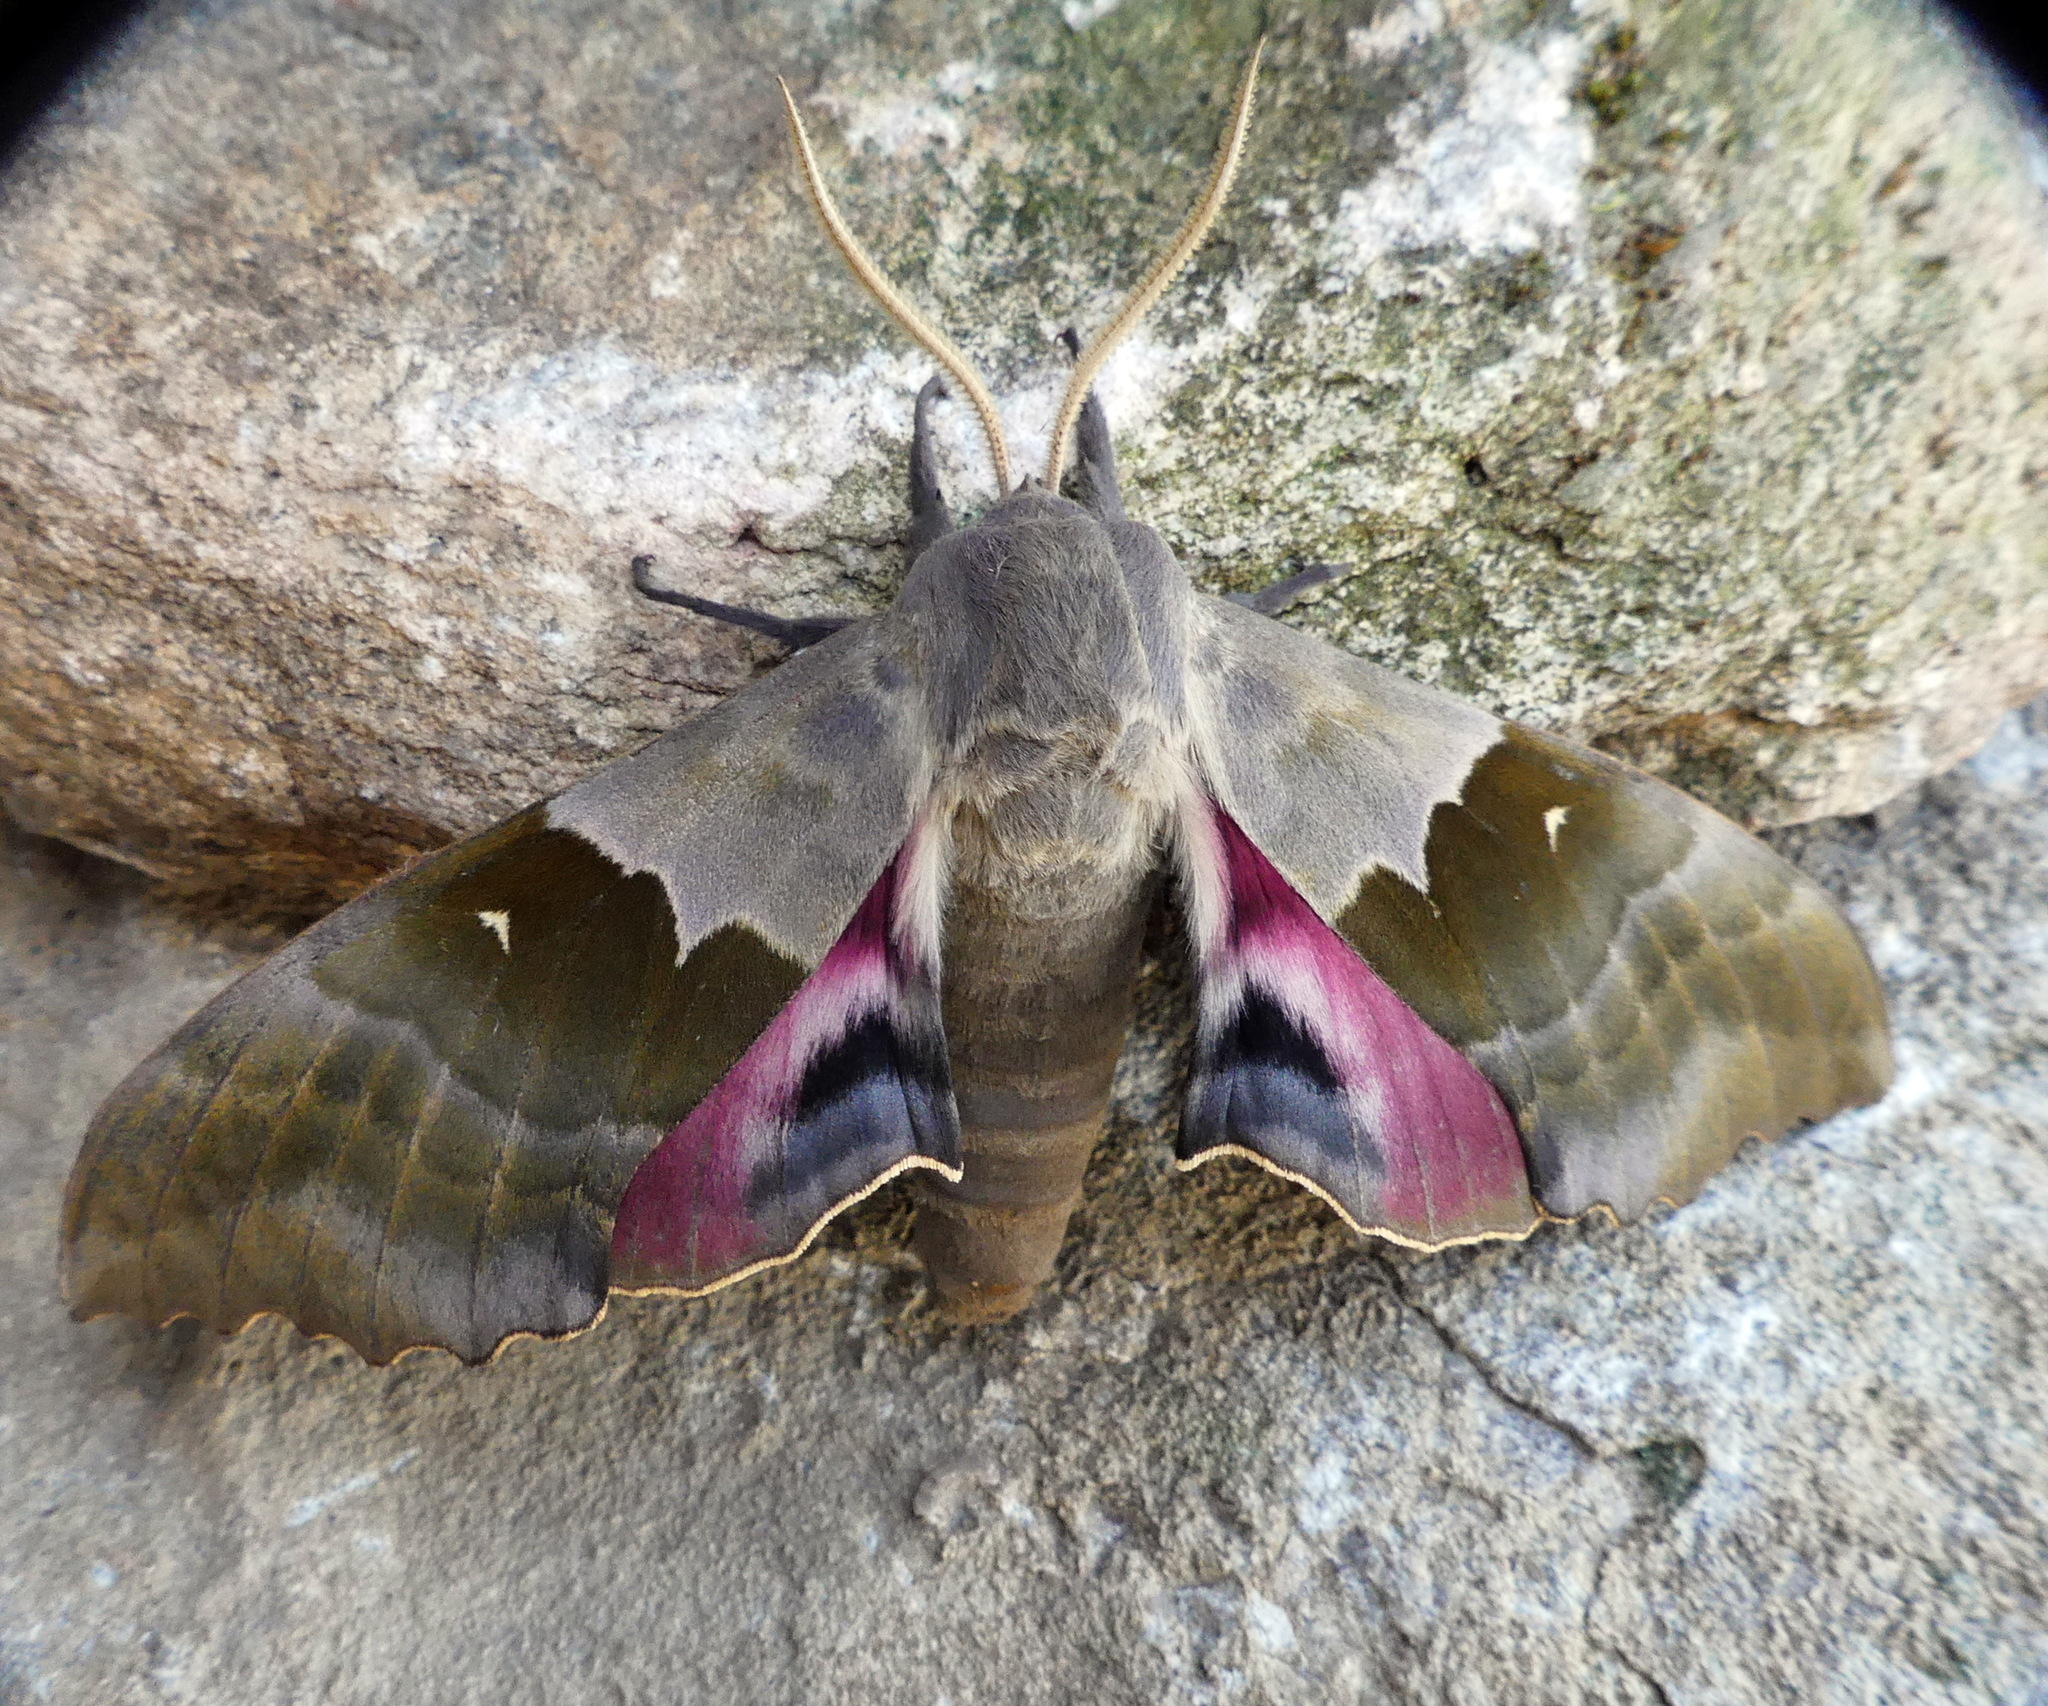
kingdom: Animalia
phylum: Arthropoda
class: Insecta
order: Lepidoptera
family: Sphingidae
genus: Pachysphinx
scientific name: Pachysphinx modesta
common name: Big poplar sphinx
